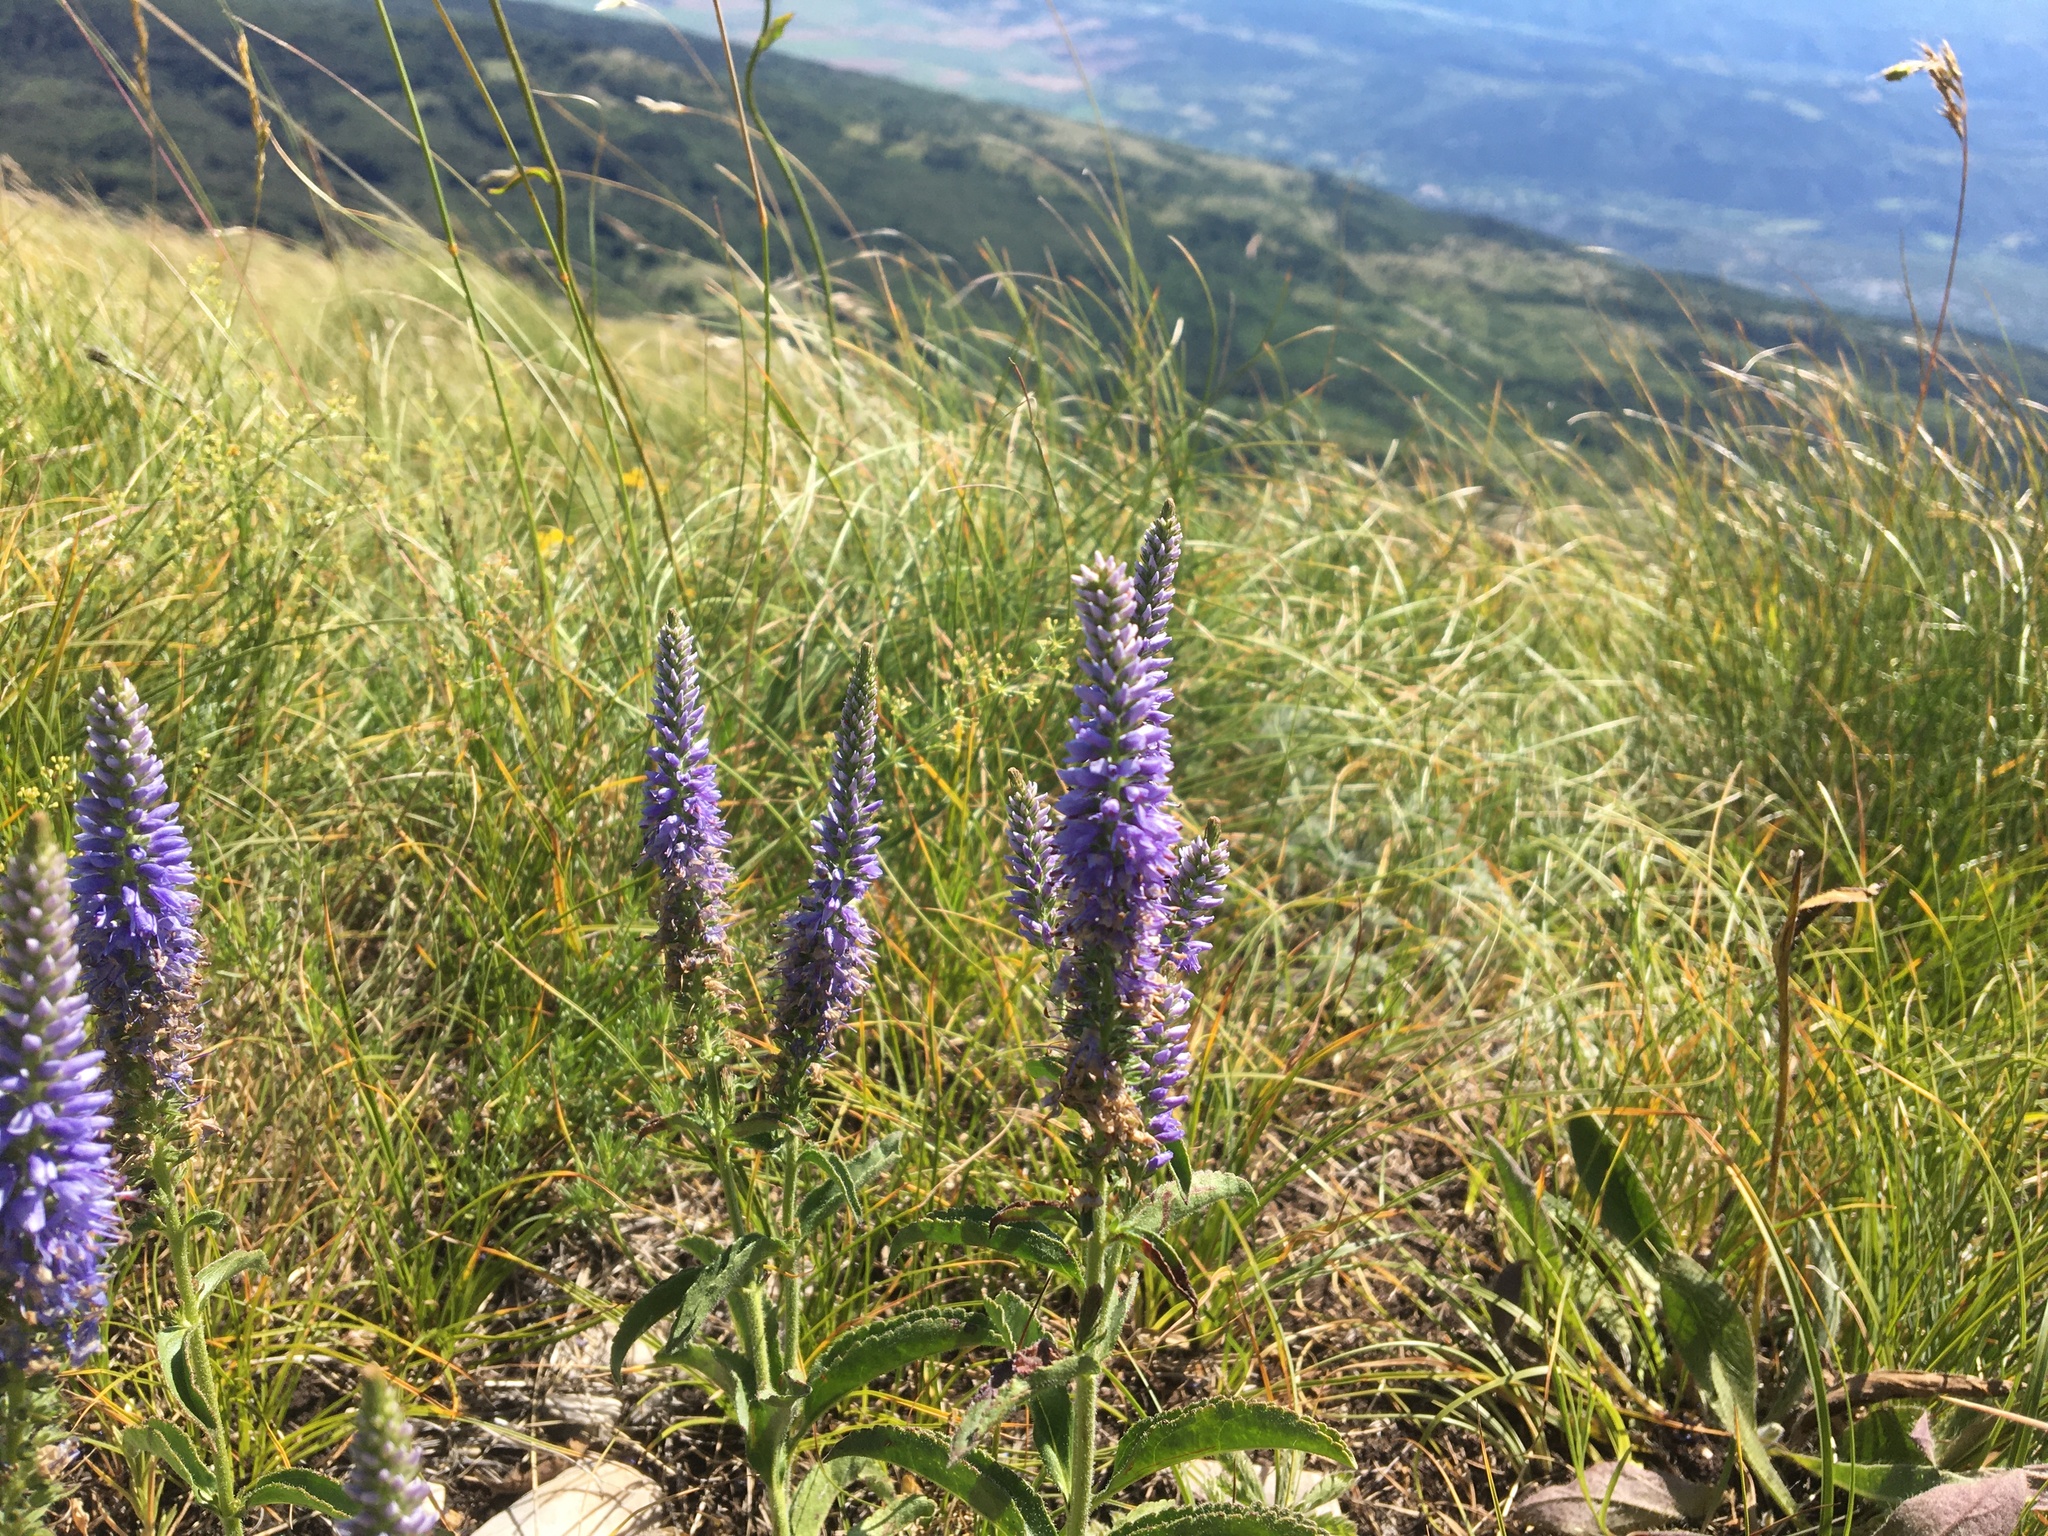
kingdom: Plantae
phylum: Tracheophyta
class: Magnoliopsida
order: Lamiales
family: Plantaginaceae
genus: Veronica
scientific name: Veronica barrelieri
